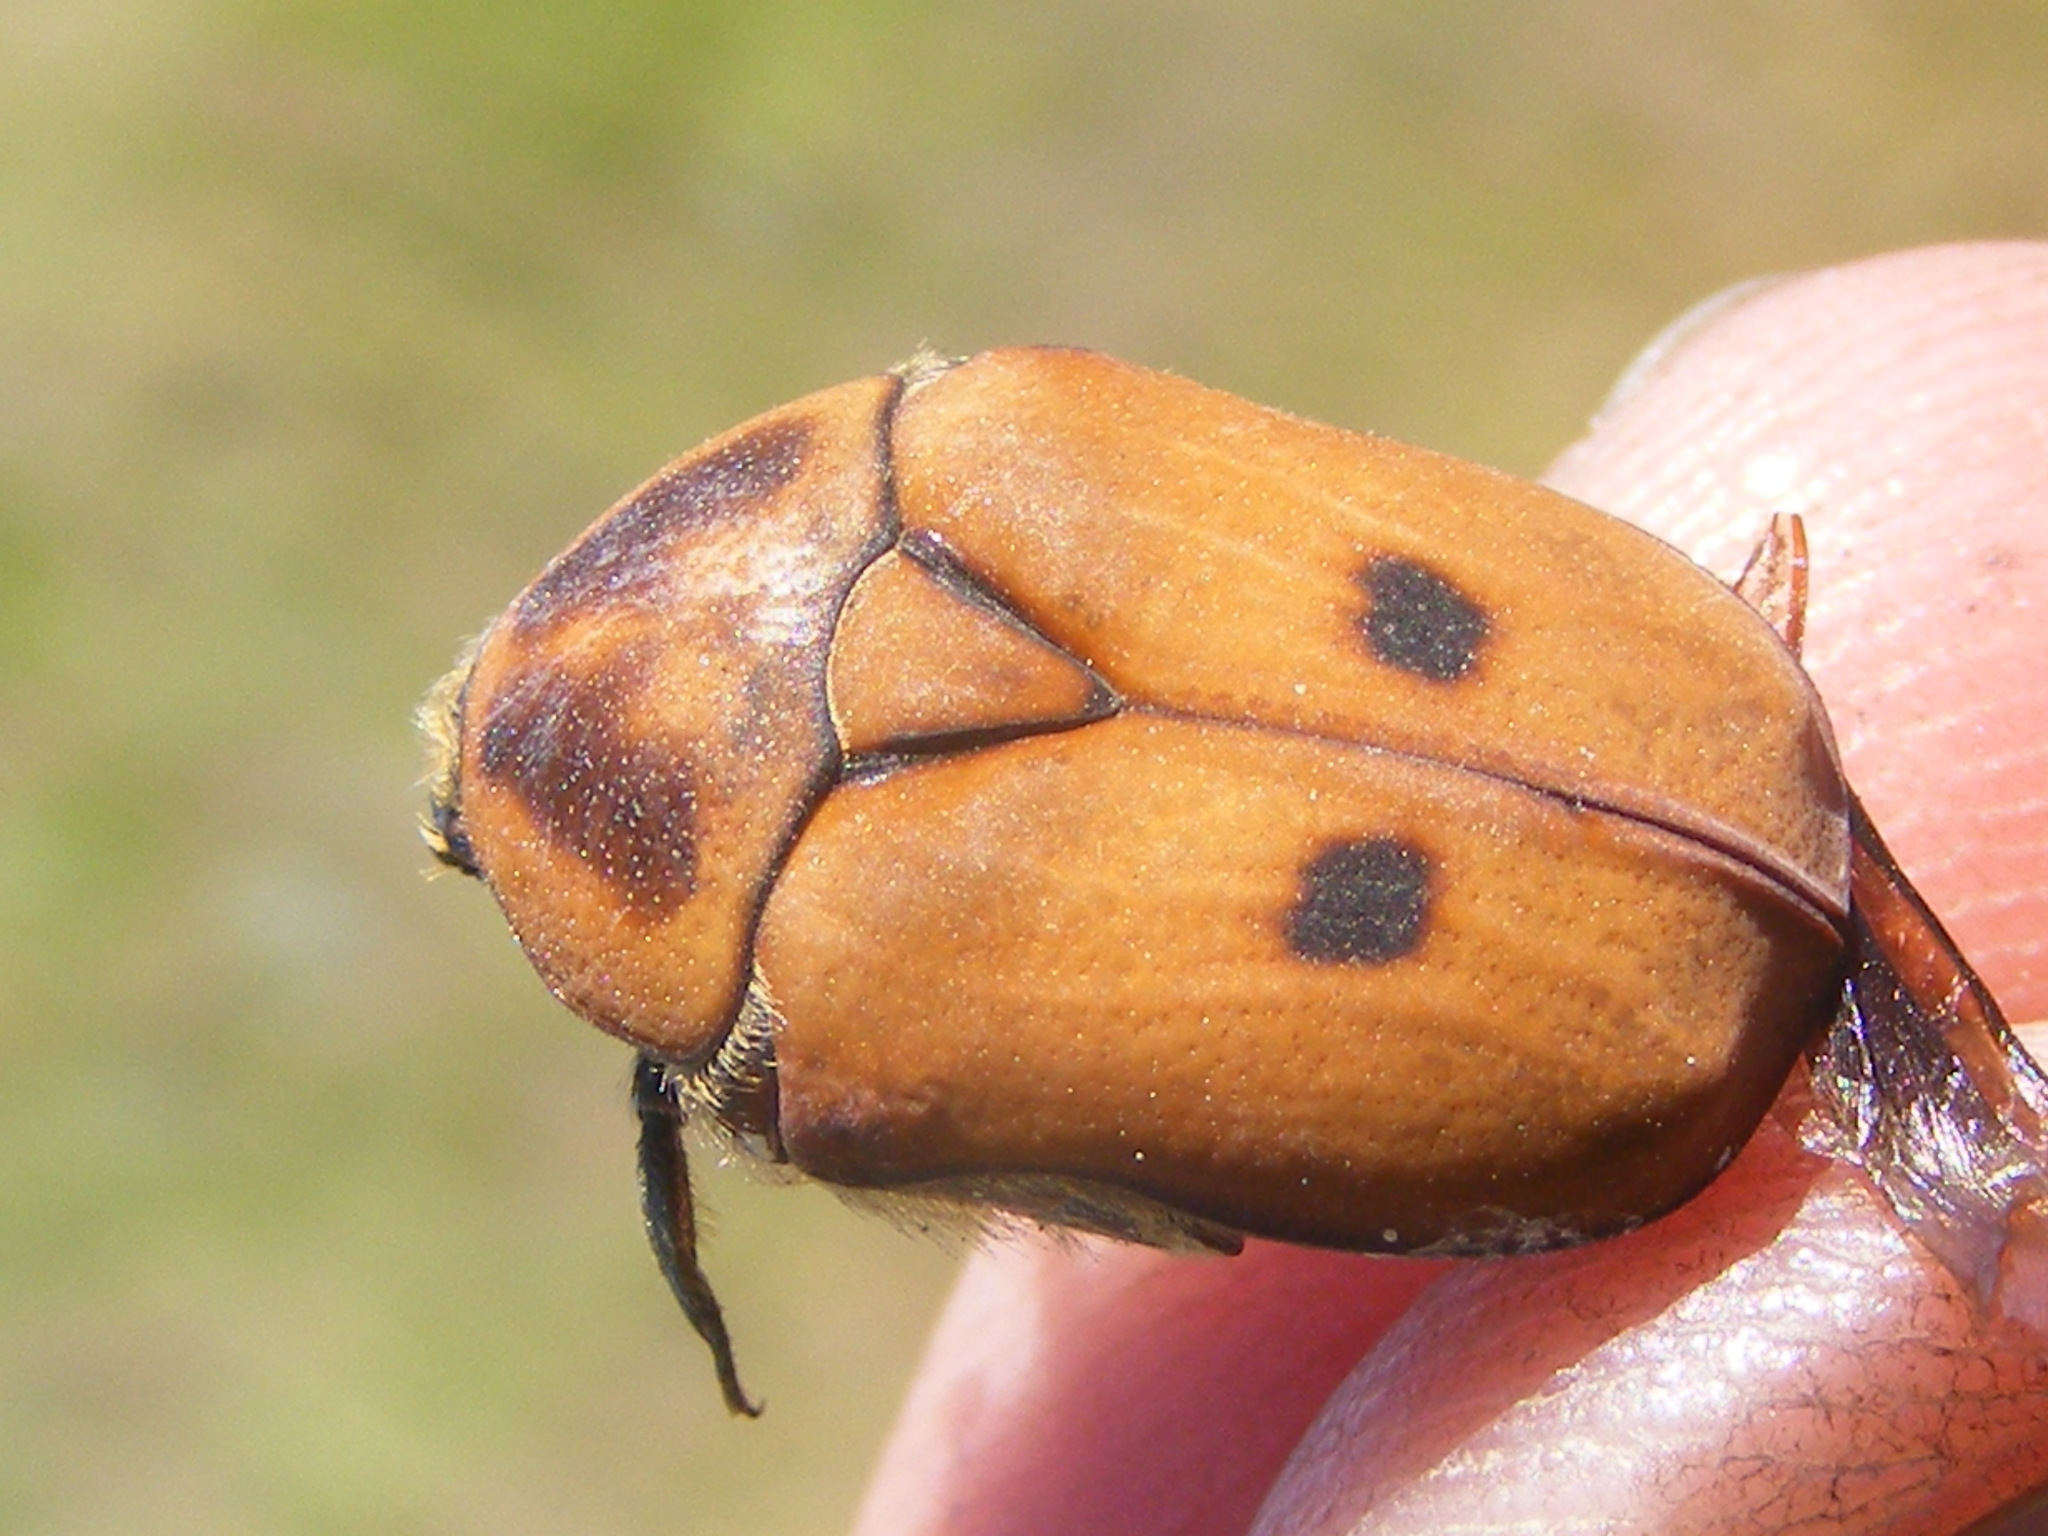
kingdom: Animalia
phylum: Arthropoda
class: Insecta
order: Coleoptera
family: Scarabaeidae
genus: Tephraea
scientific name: Tephraea simonsi
